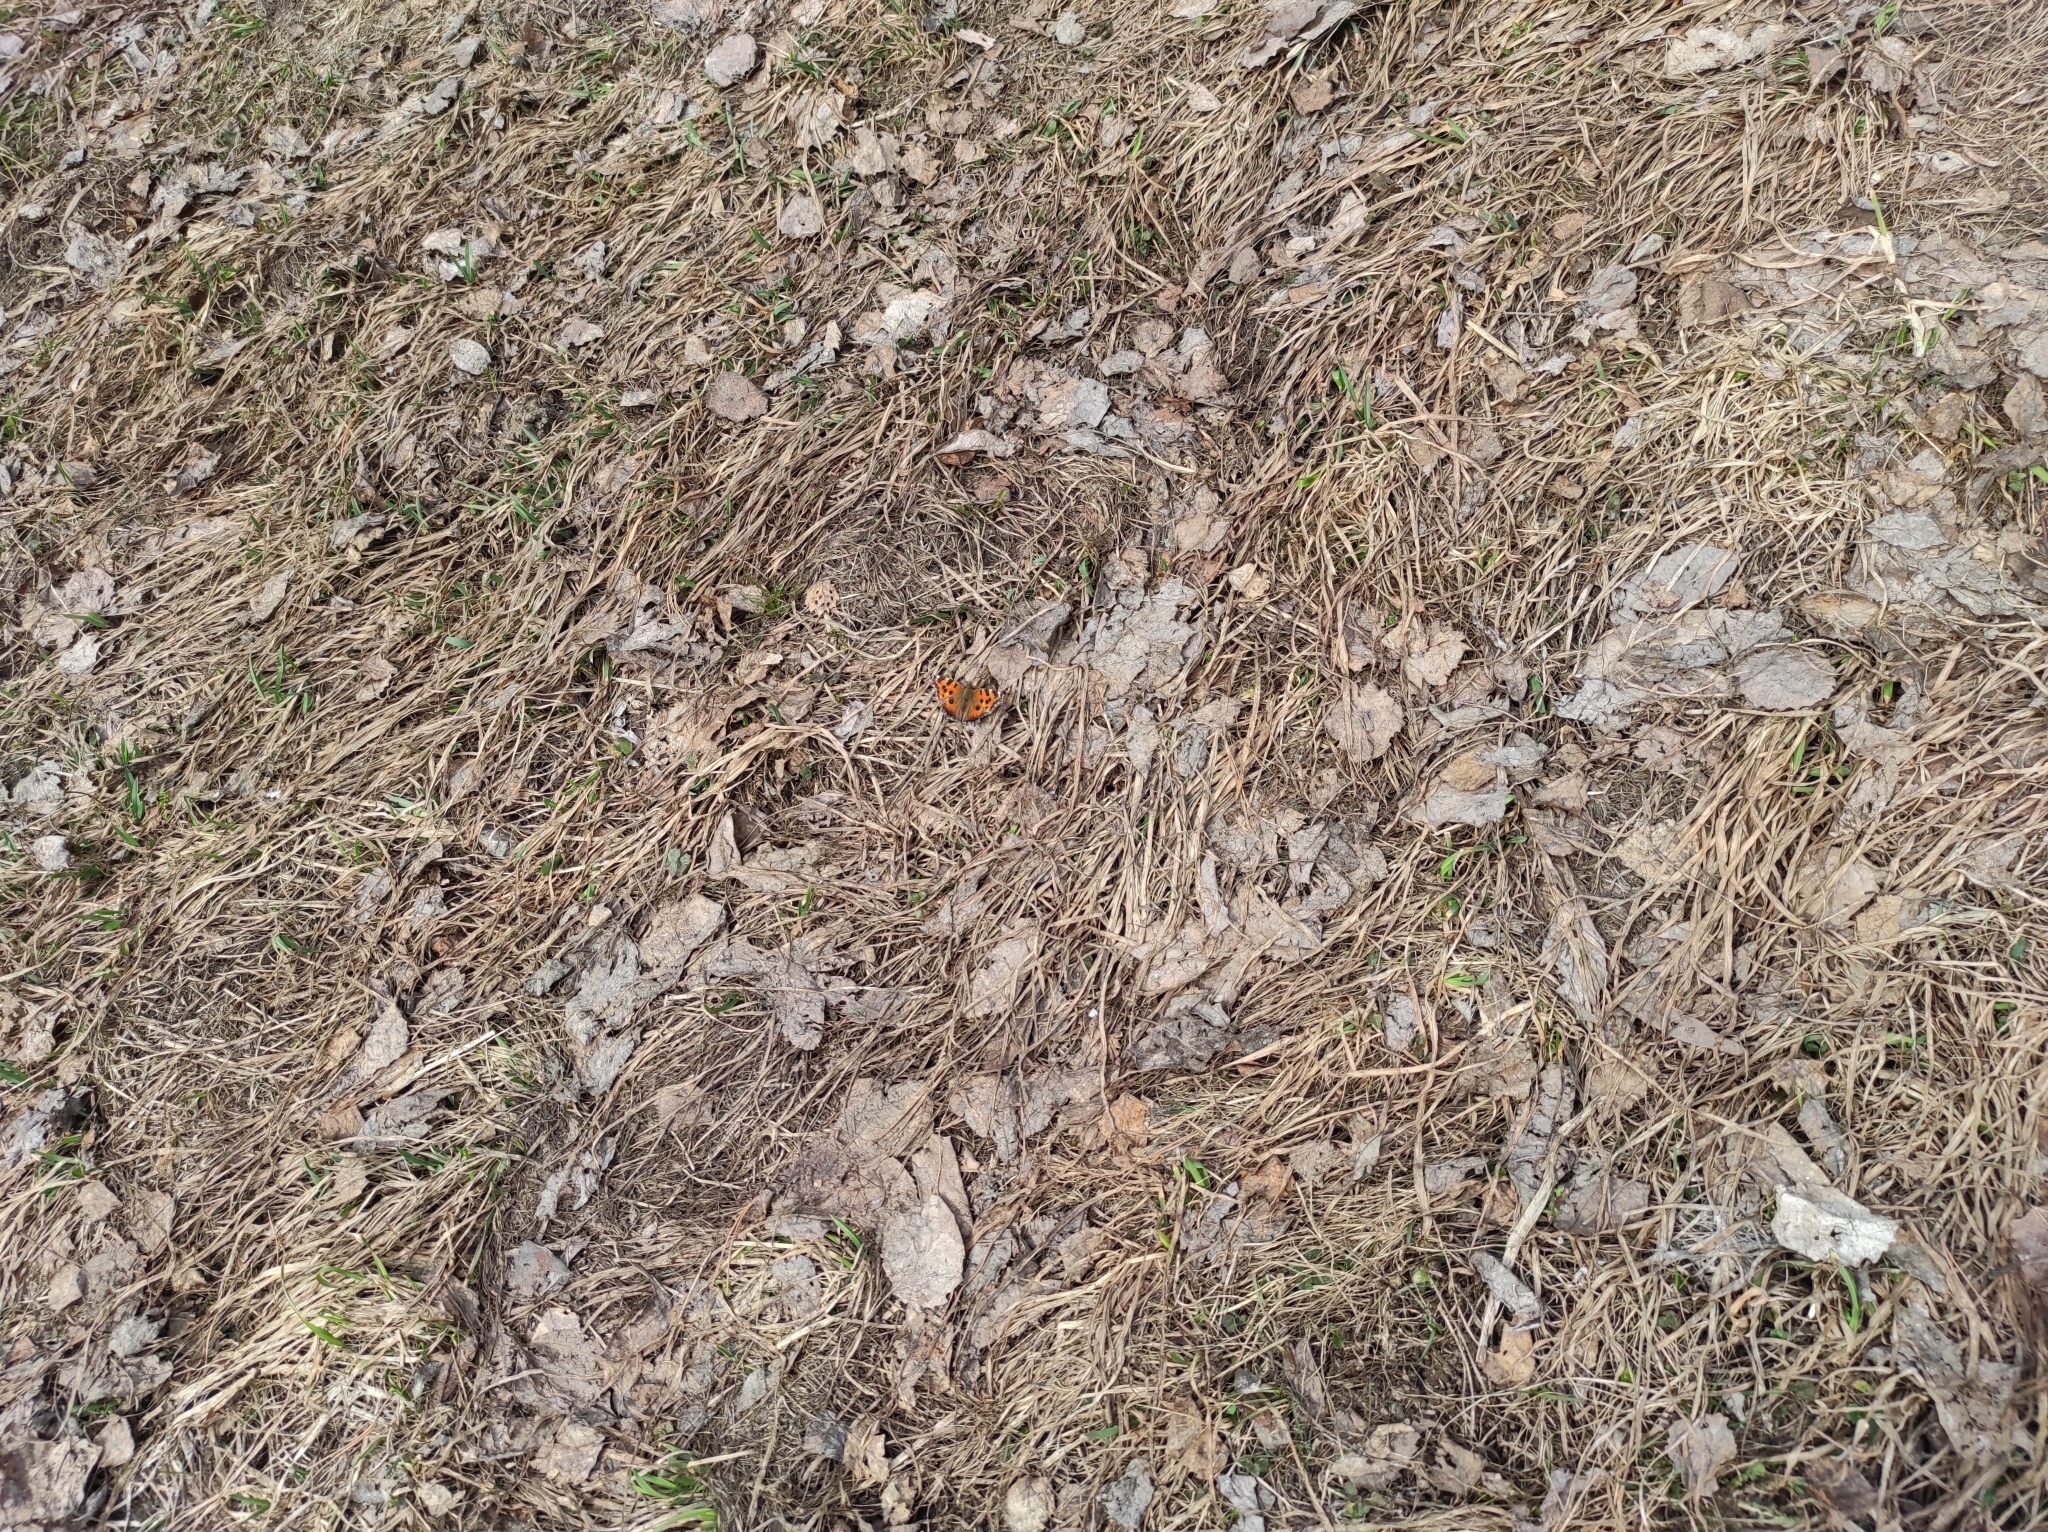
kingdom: Animalia
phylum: Arthropoda
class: Insecta
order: Lepidoptera
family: Nymphalidae
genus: Nymphalis
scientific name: Nymphalis xanthomelas
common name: Scarce tortoiseshell
